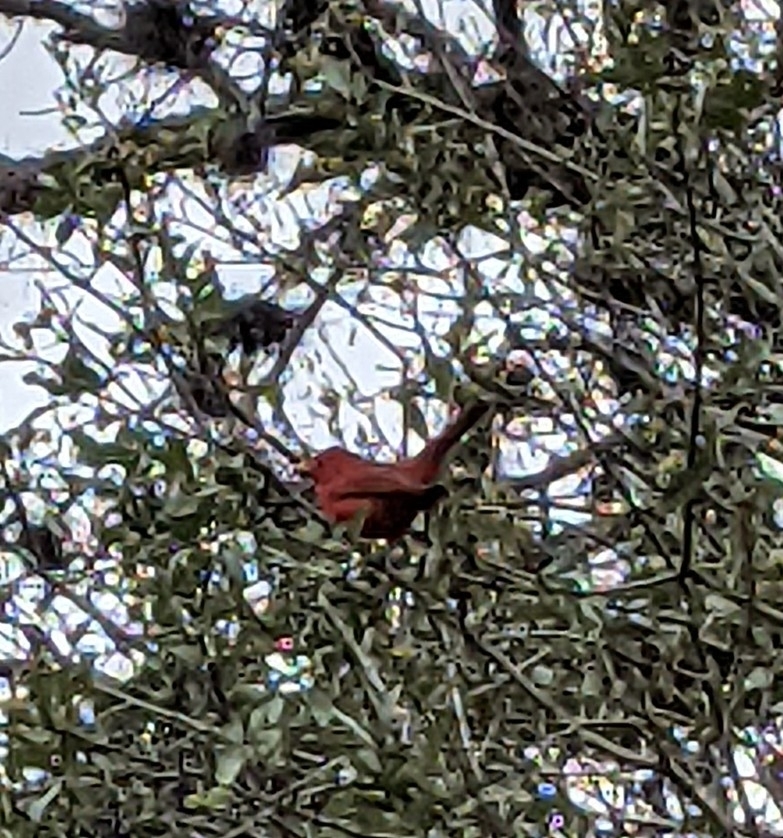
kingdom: Animalia
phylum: Chordata
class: Aves
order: Passeriformes
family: Cardinalidae
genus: Piranga
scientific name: Piranga rubra
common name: Summer tanager
